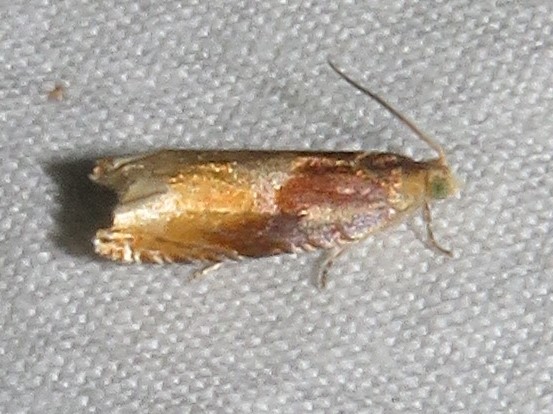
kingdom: Animalia
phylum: Arthropoda
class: Insecta
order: Lepidoptera
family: Tortricidae
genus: Ancylis
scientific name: Ancylis divisana
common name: Two-toned ancylis moth
